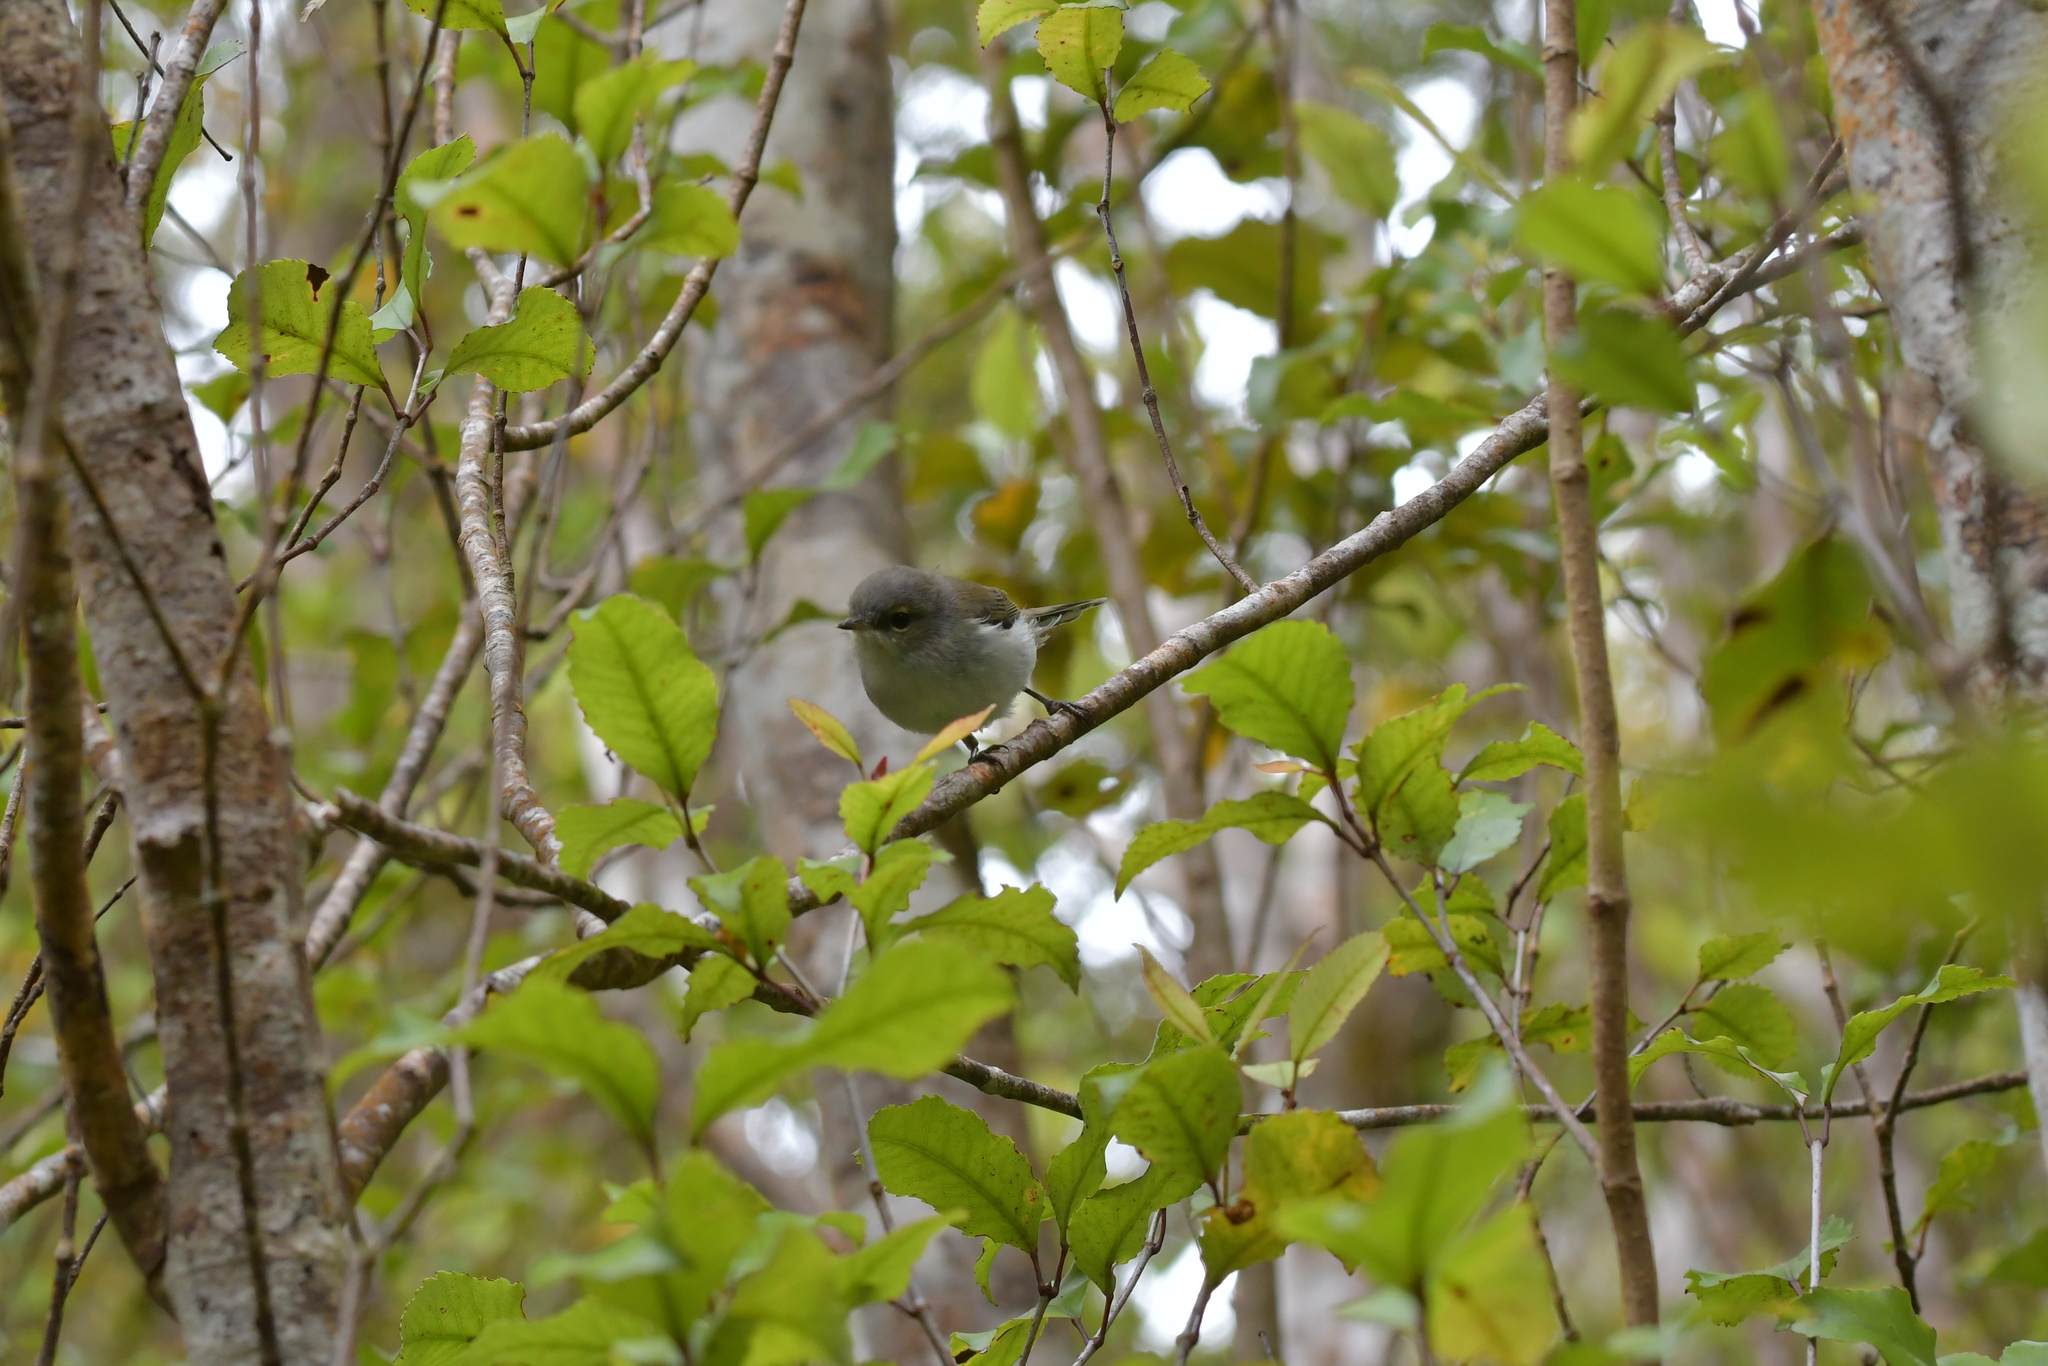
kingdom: Animalia
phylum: Chordata
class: Aves
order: Passeriformes
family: Acanthizidae
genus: Gerygone
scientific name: Gerygone igata
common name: Grey gerygone
